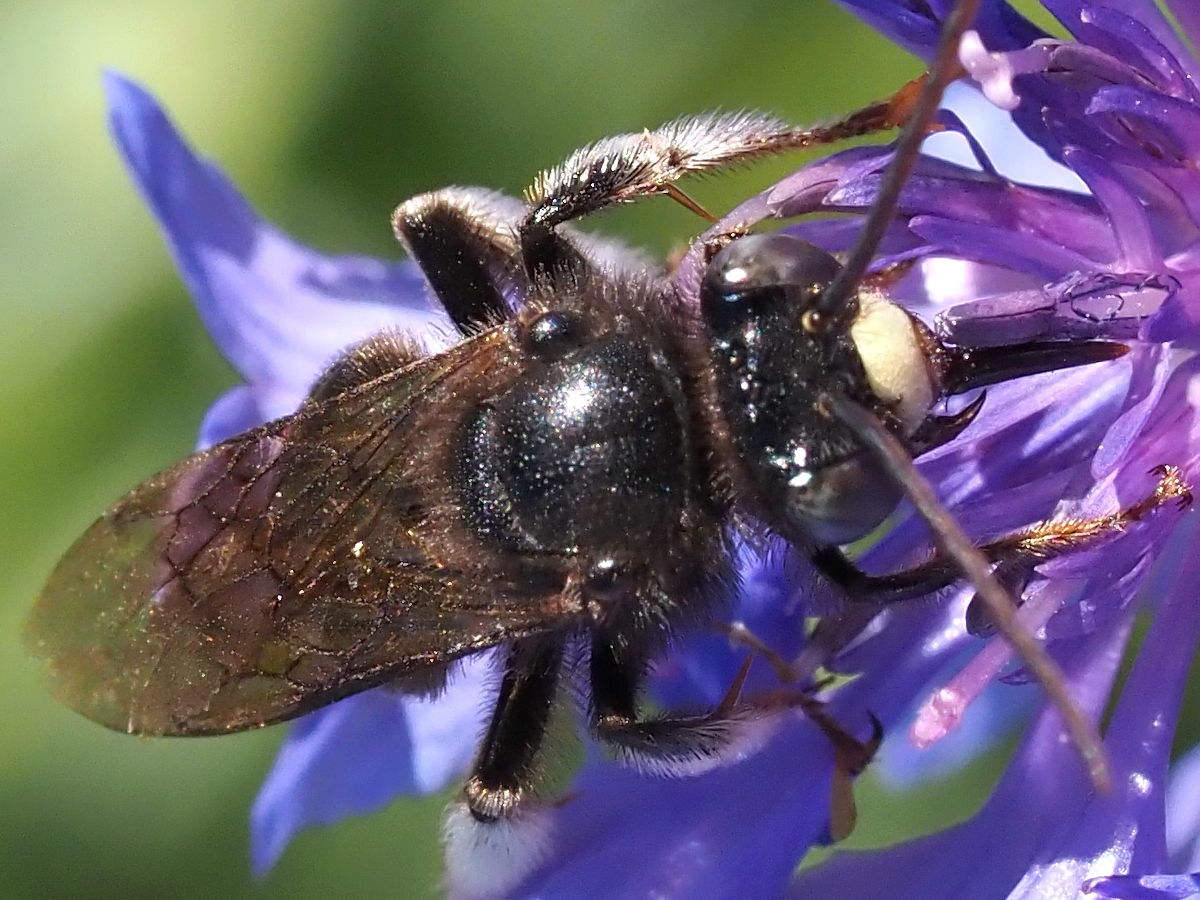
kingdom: Animalia
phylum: Arthropoda
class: Insecta
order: Hymenoptera
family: Apidae
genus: Melissodes
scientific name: Melissodes bimaculatus
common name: Two-spotted long-horned bee
